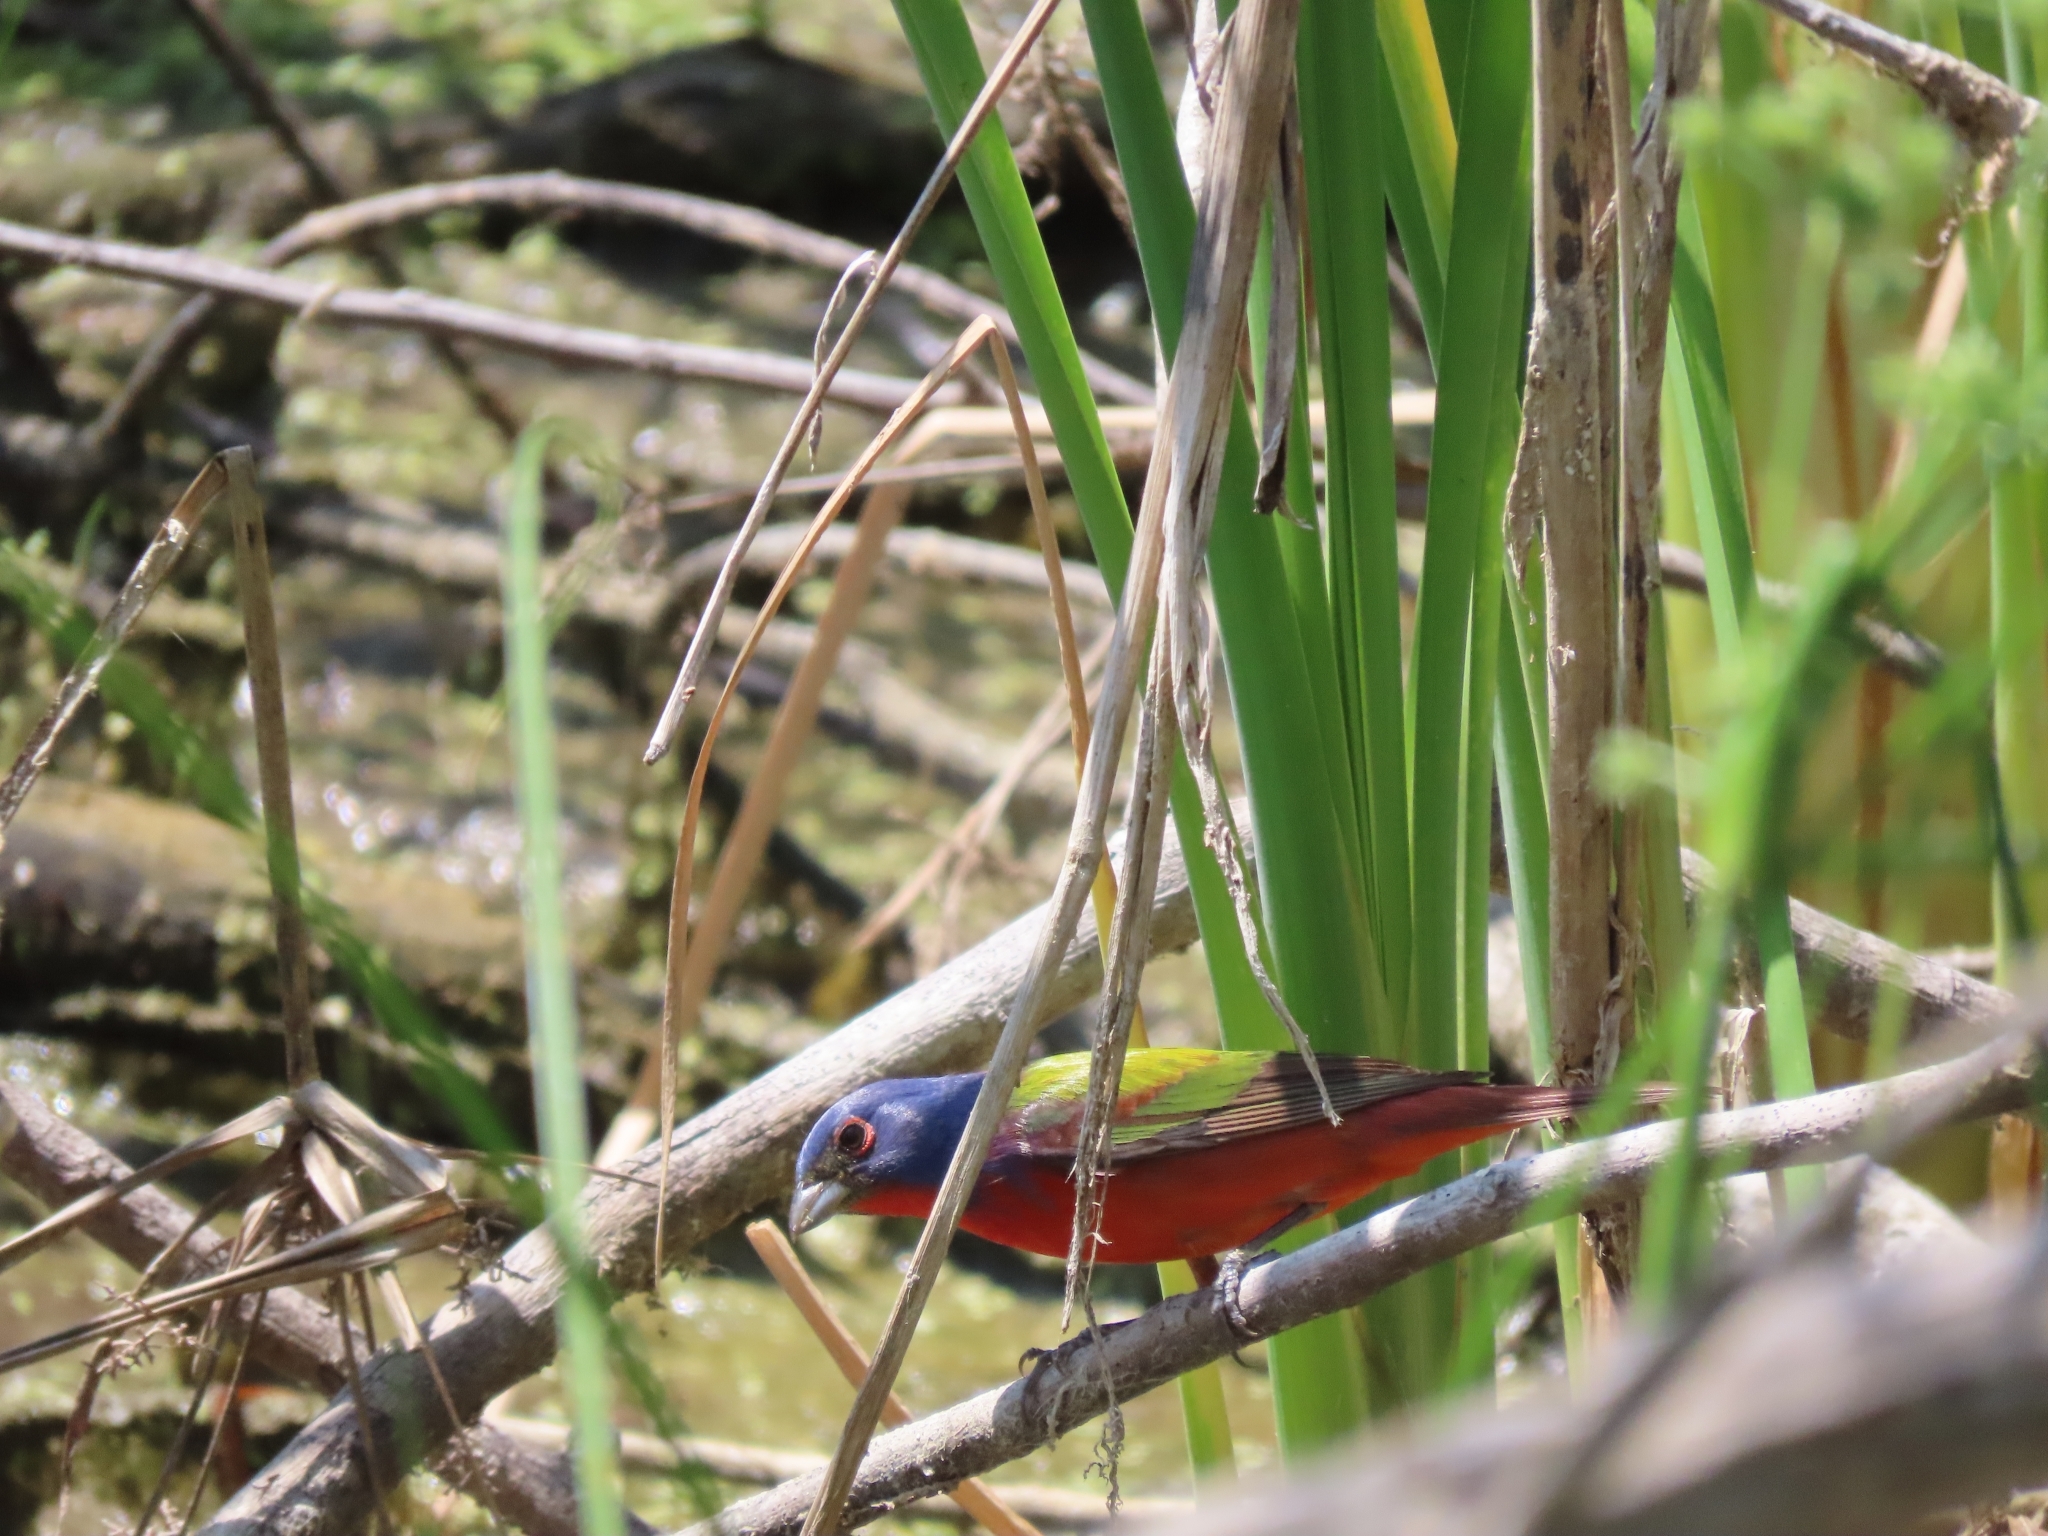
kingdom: Animalia
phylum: Chordata
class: Aves
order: Passeriformes
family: Cardinalidae
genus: Passerina
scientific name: Passerina ciris
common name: Painted bunting
